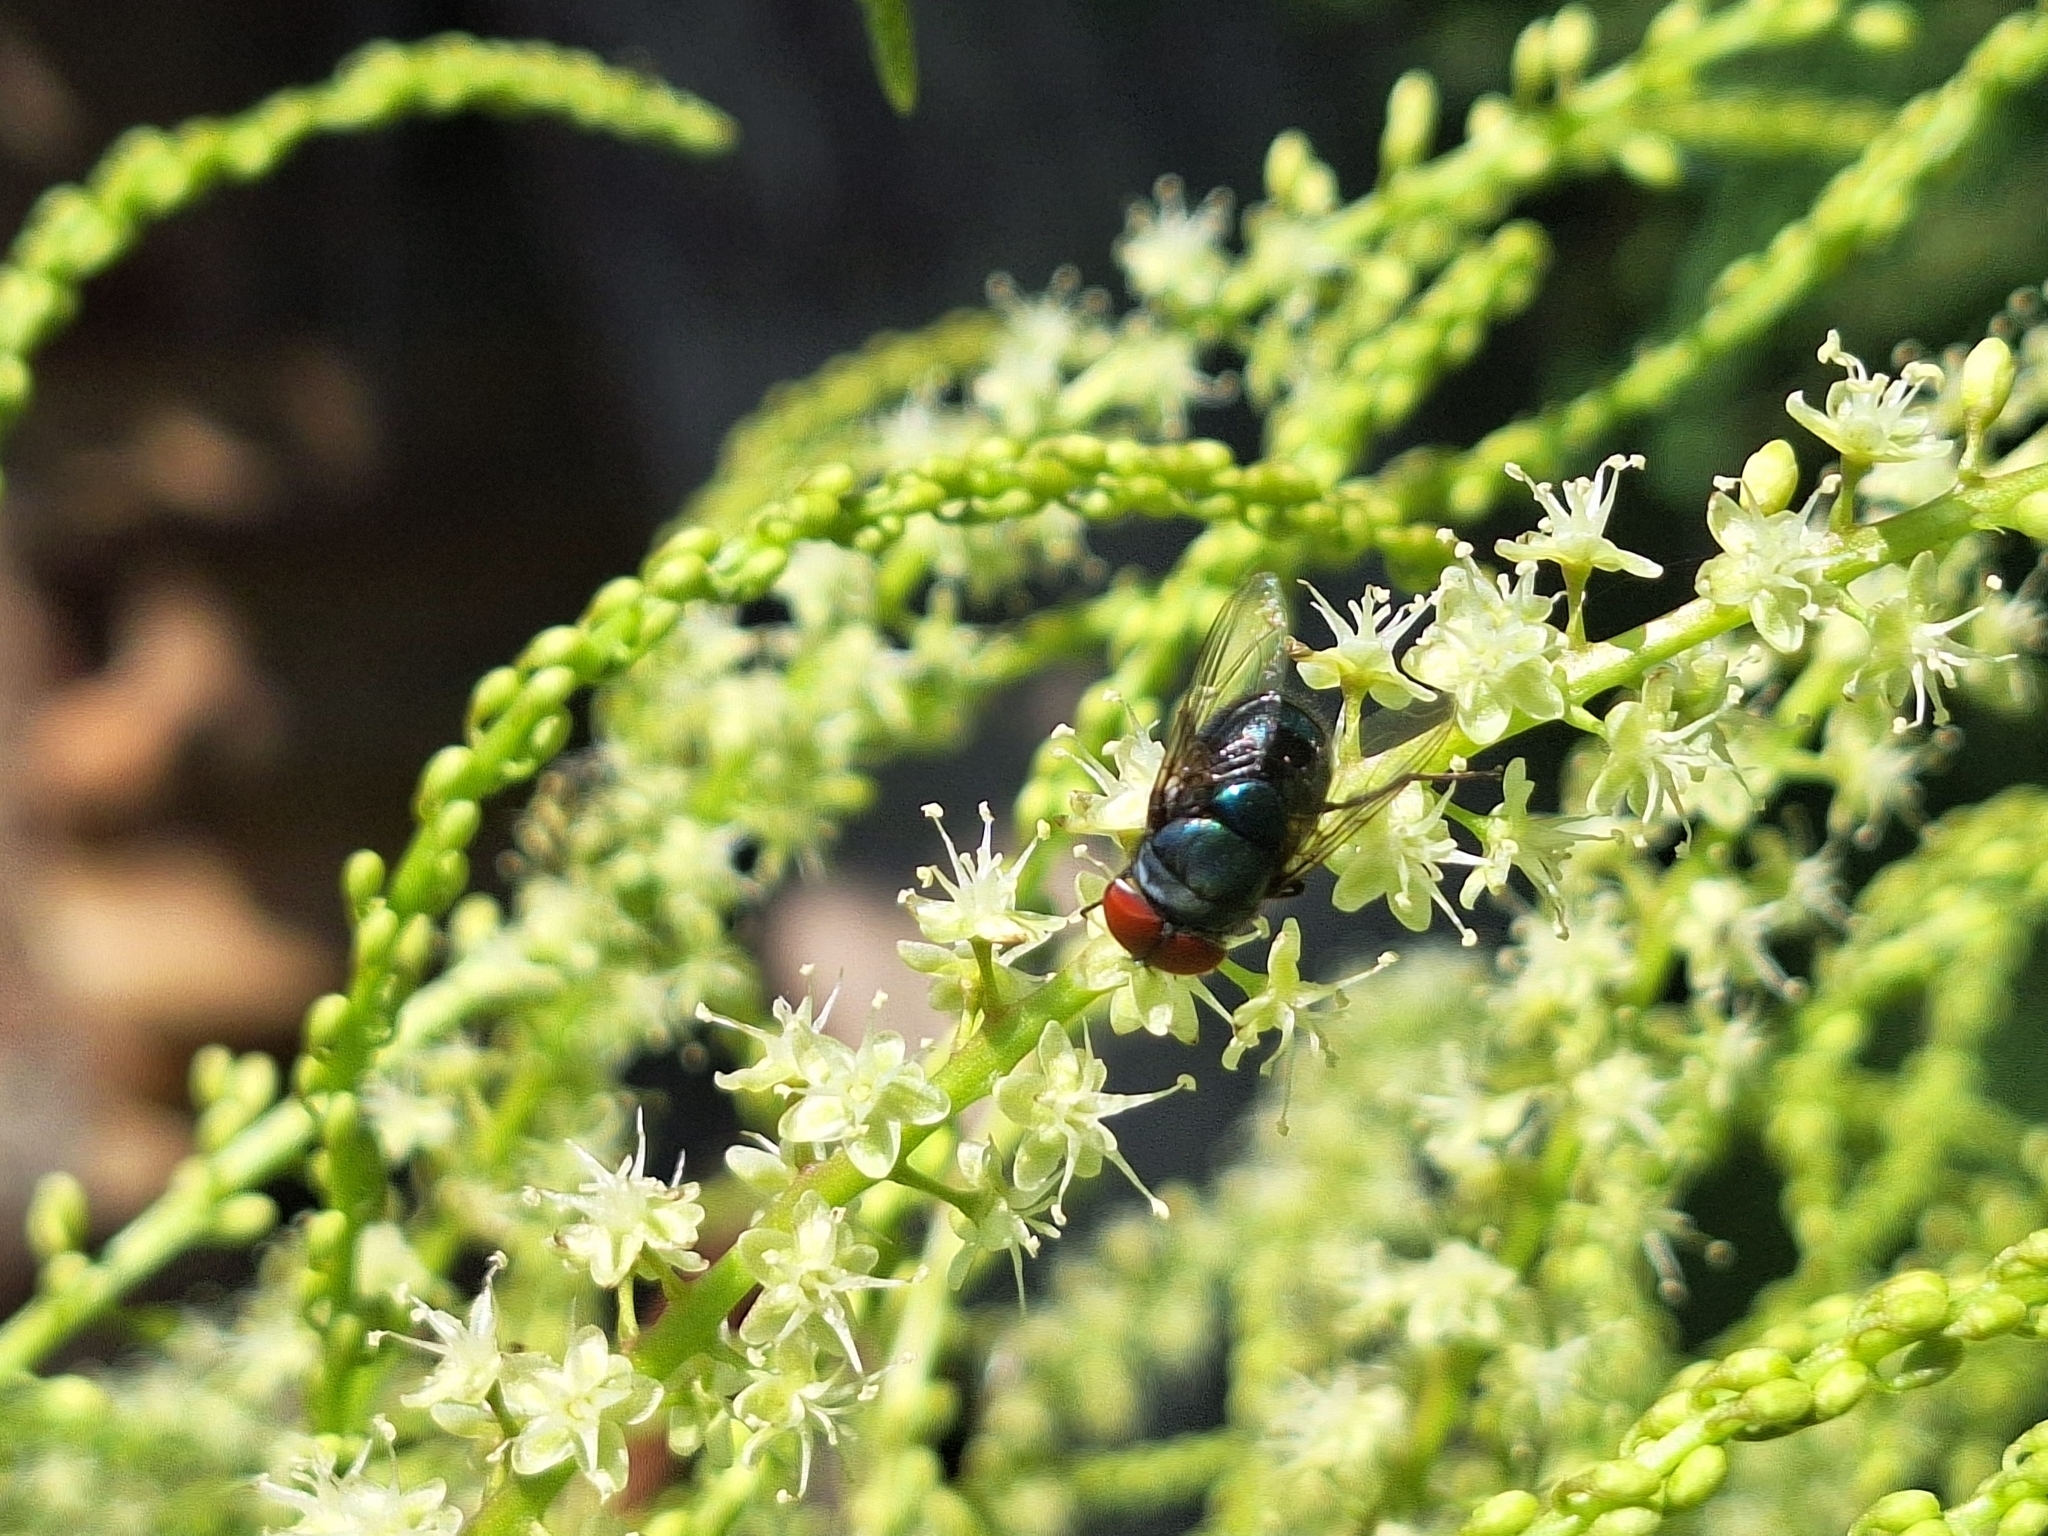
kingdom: Animalia
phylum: Arthropoda
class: Insecta
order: Diptera
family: Calliphoridae
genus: Chrysomya
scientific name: Chrysomya megacephala
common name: Blow fly
